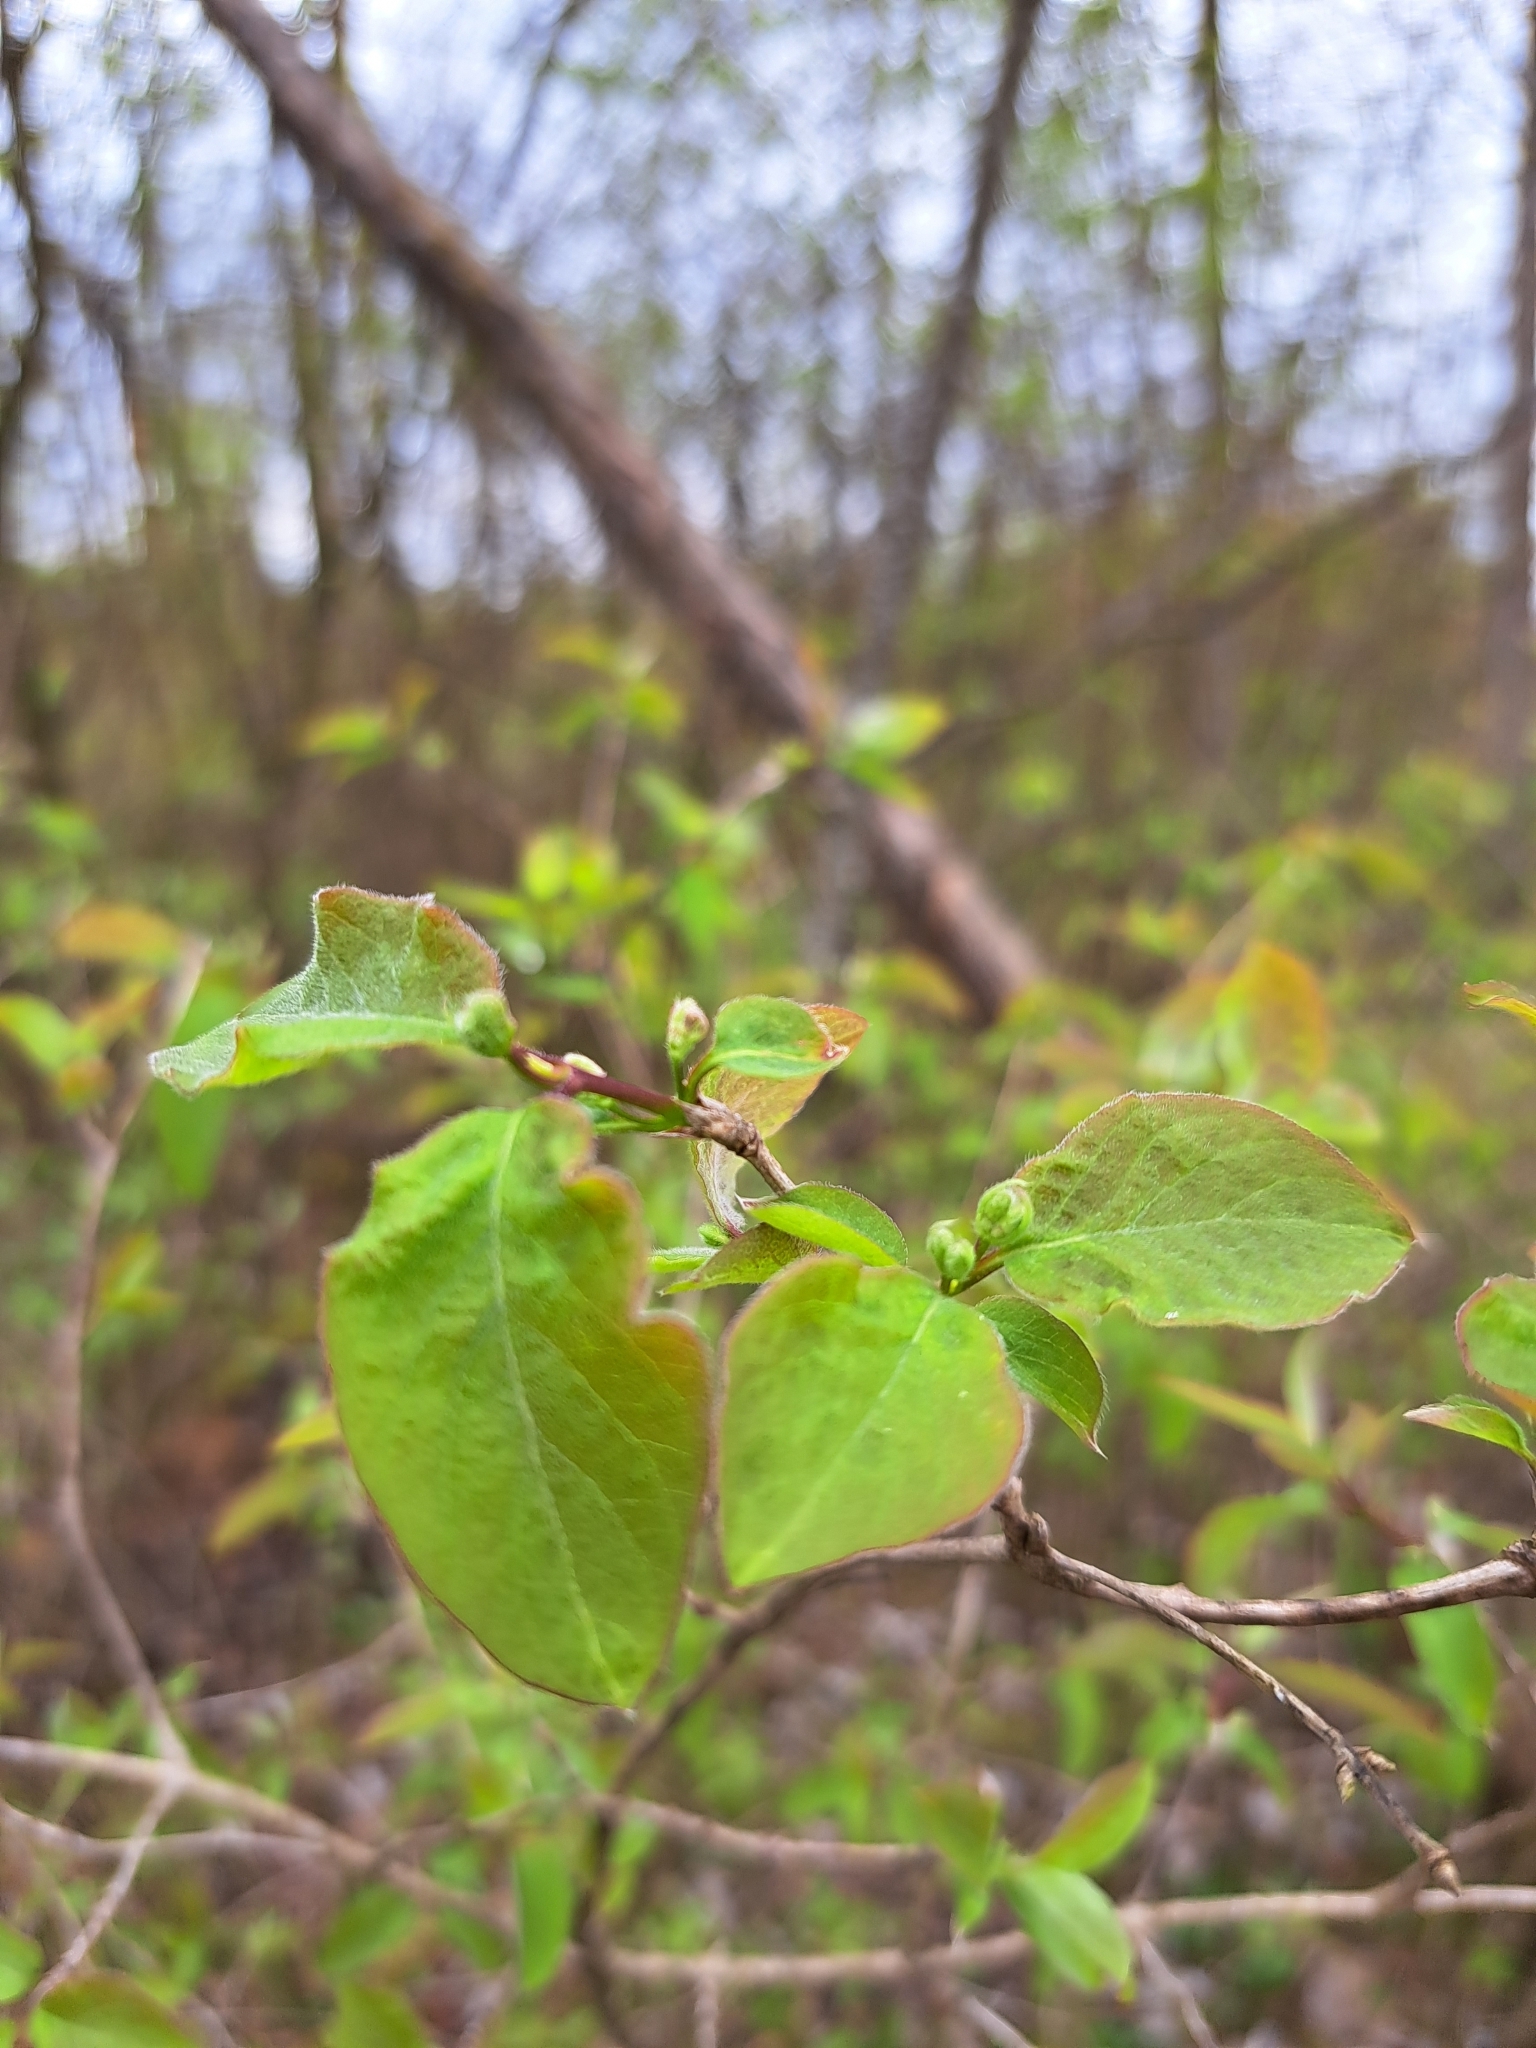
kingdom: Plantae
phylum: Tracheophyta
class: Magnoliopsida
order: Dipsacales
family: Caprifoliaceae
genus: Lonicera
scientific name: Lonicera xylosteum
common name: Fly honeysuckle
